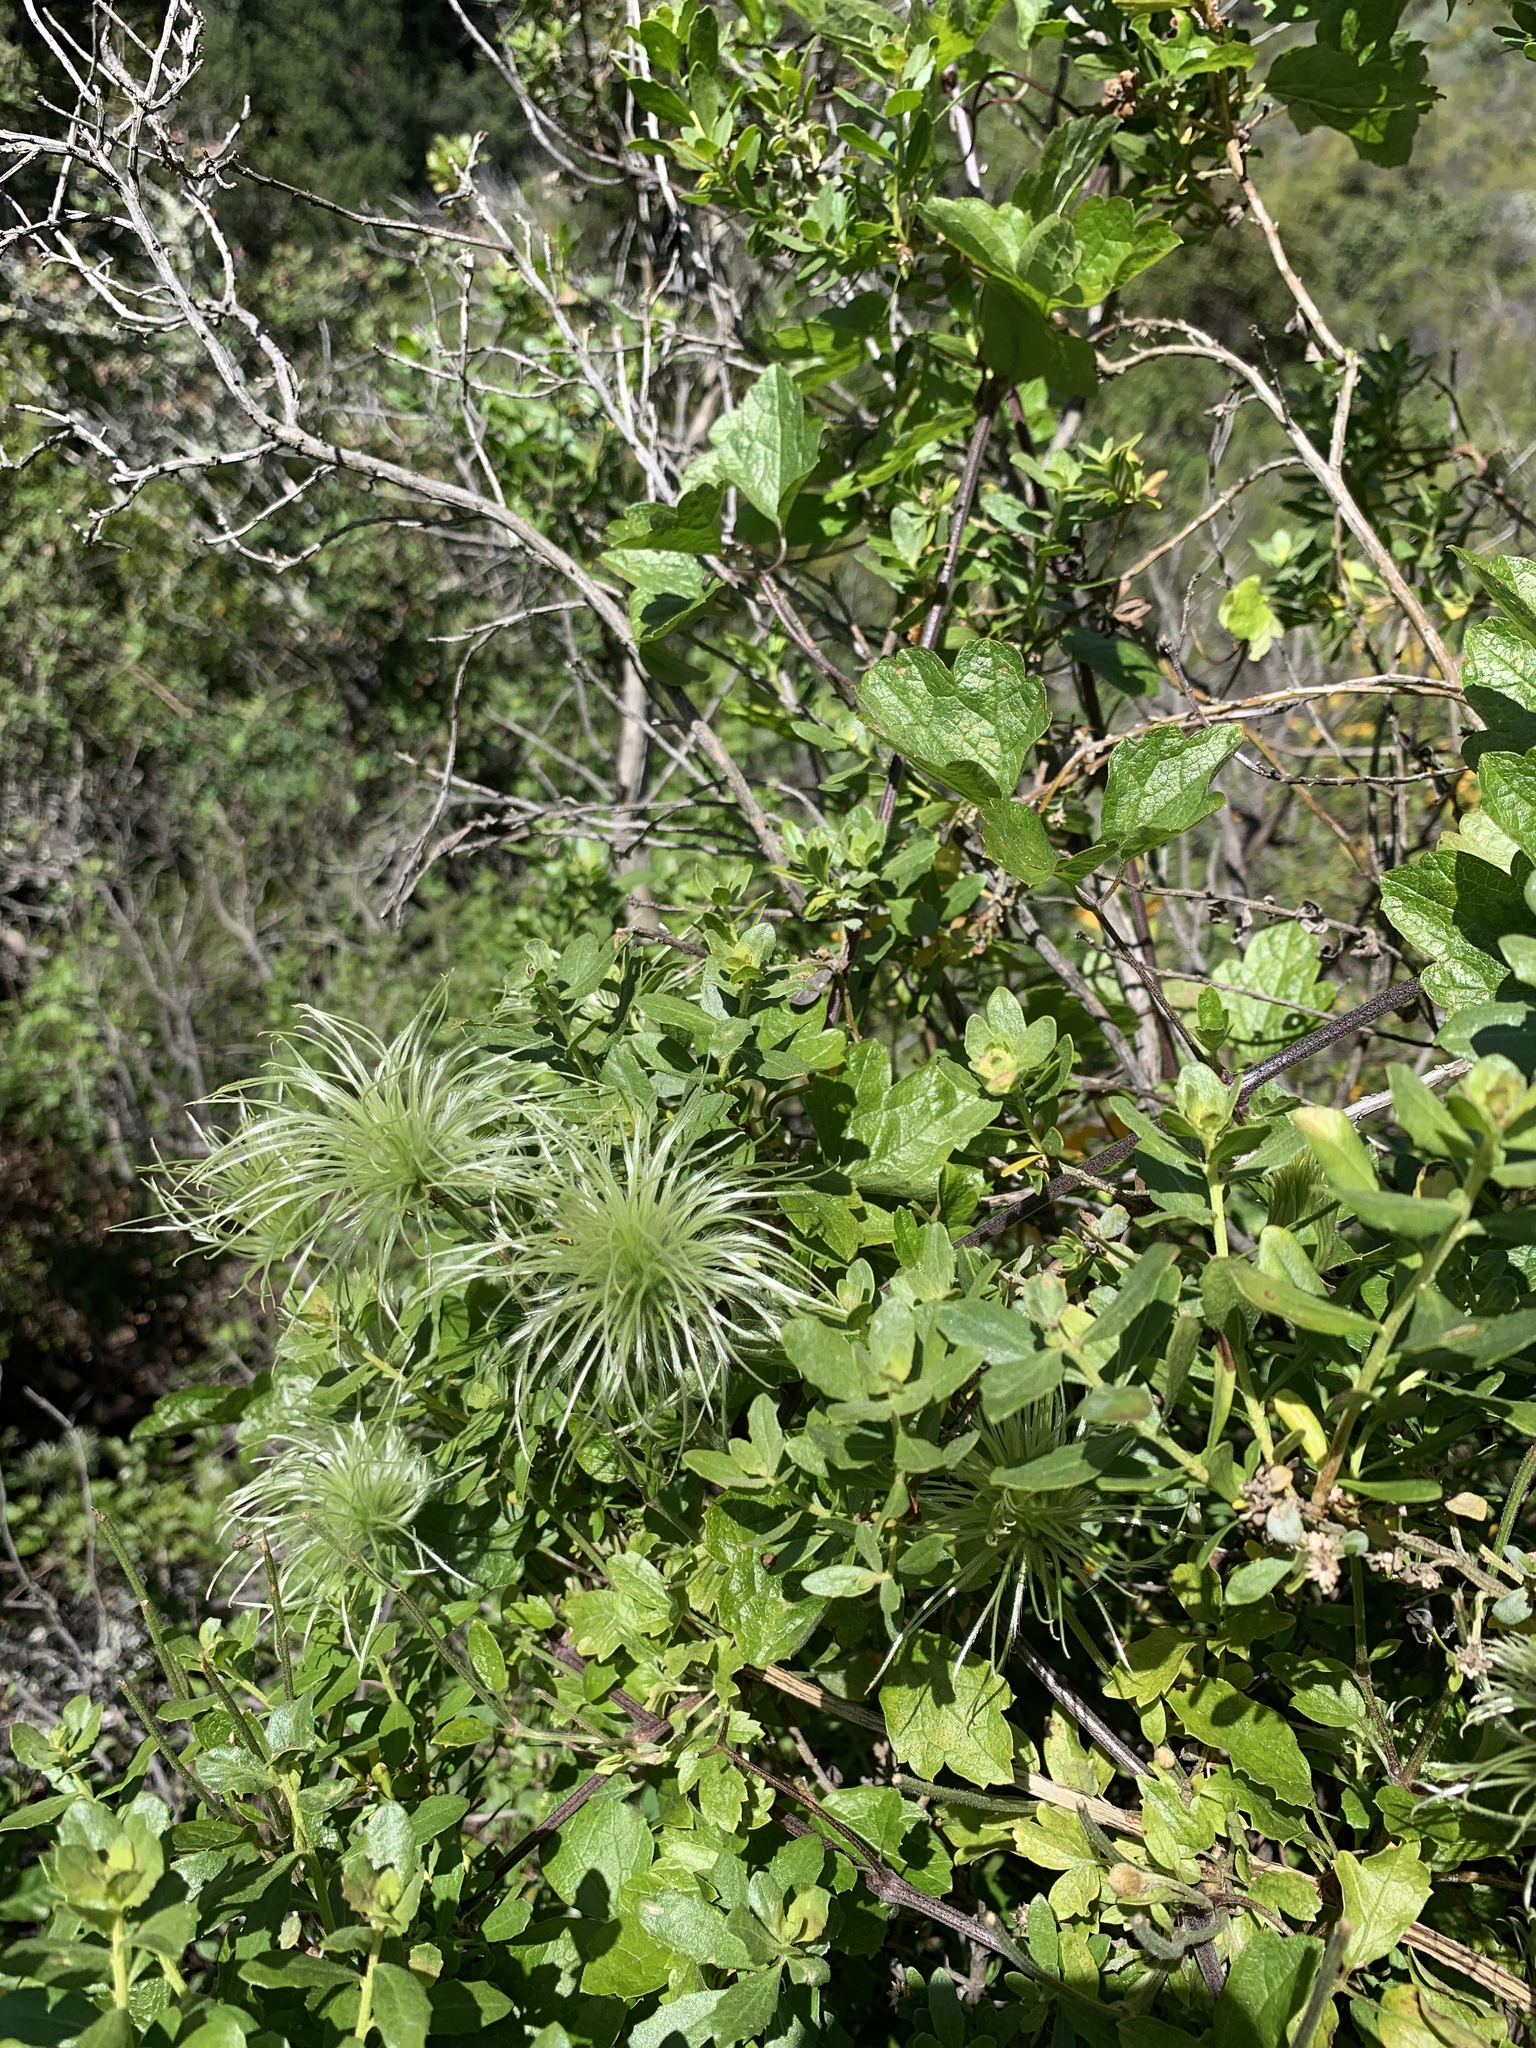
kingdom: Plantae
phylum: Tracheophyta
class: Magnoliopsida
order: Ranunculales
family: Ranunculaceae
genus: Clematis
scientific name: Clematis lasiantha
